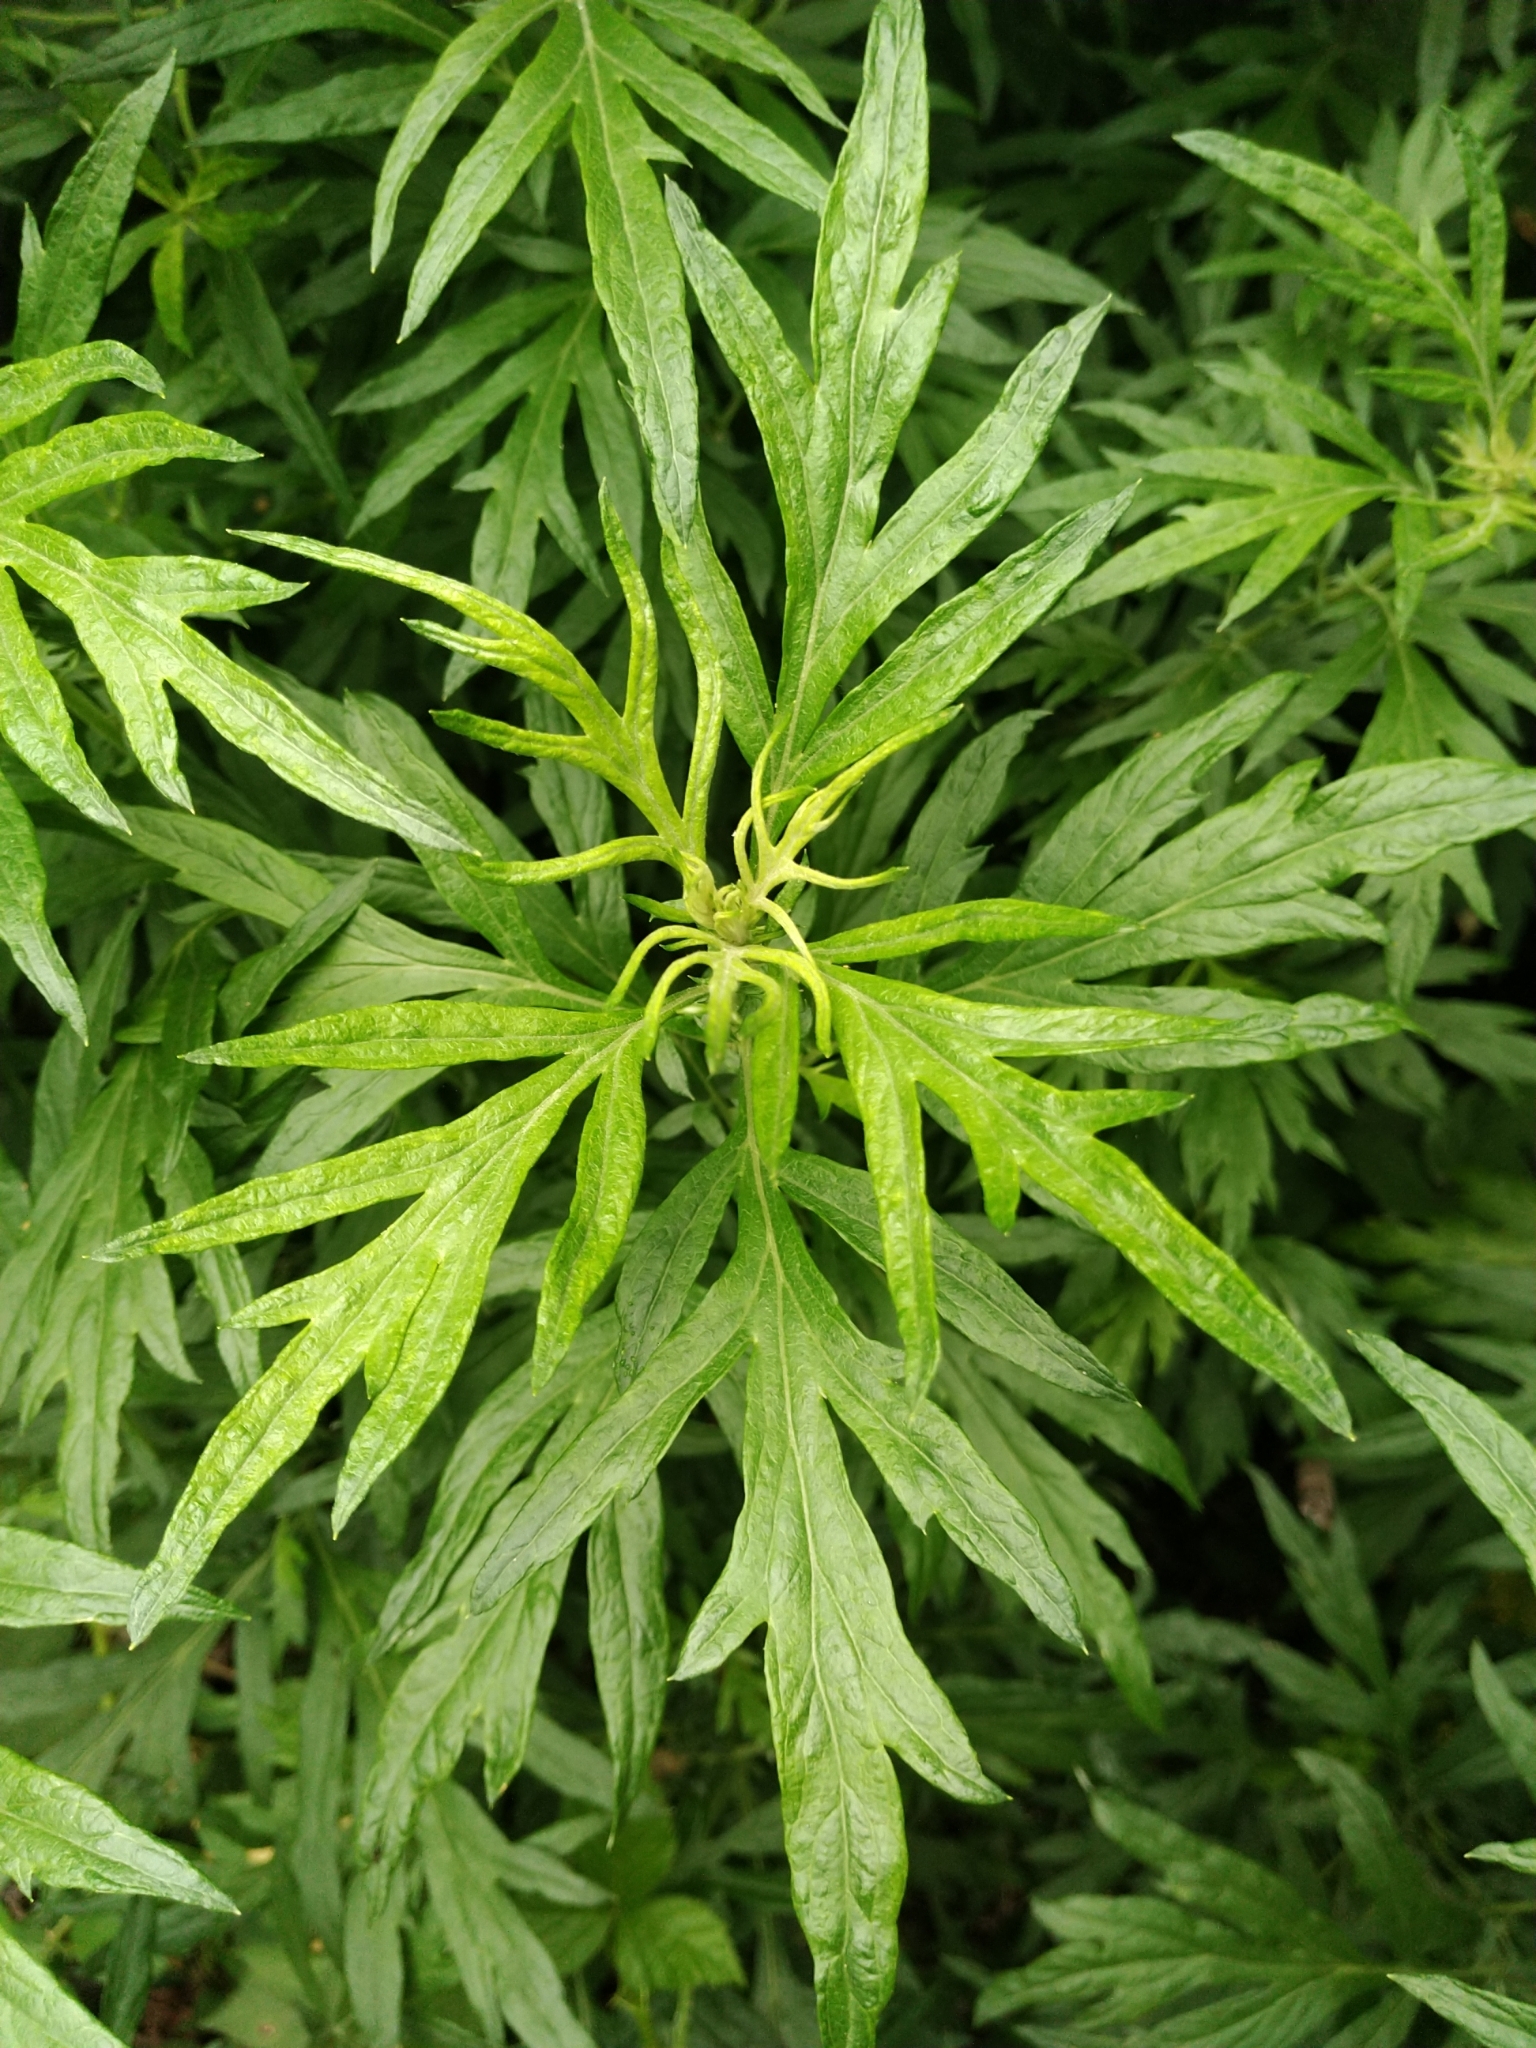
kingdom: Plantae
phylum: Tracheophyta
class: Magnoliopsida
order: Asterales
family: Asteraceae
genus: Ambrosia
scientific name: Ambrosia artemisiifolia
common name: Annual ragweed
